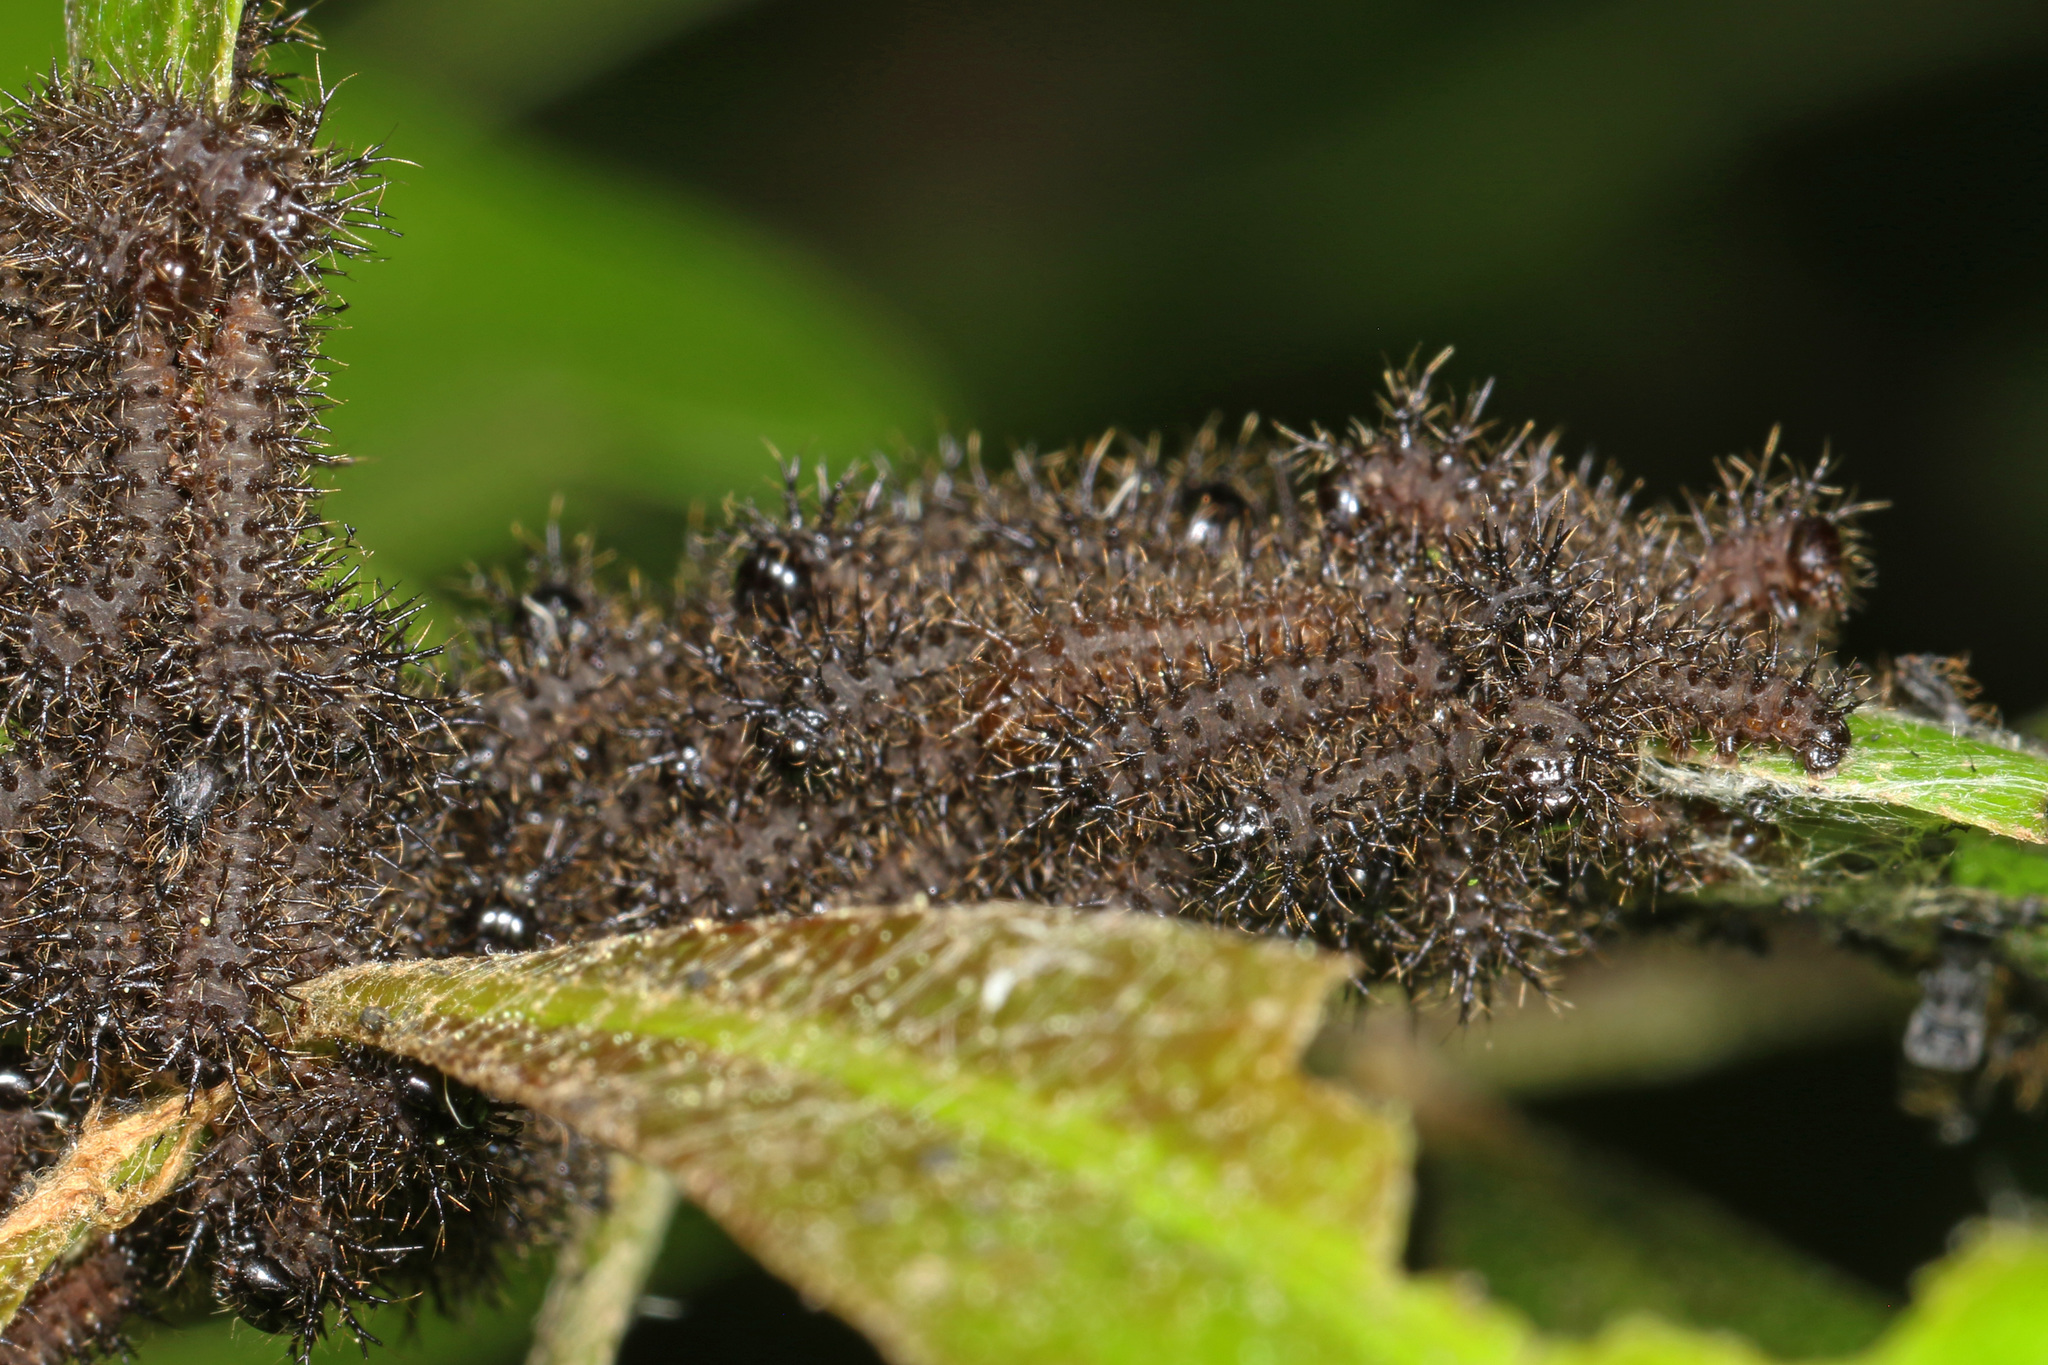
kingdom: Animalia
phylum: Arthropoda
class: Insecta
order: Lepidoptera
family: Saturniidae
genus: Hemileuca
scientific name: Hemileuca maia
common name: Eastern buckmoth
